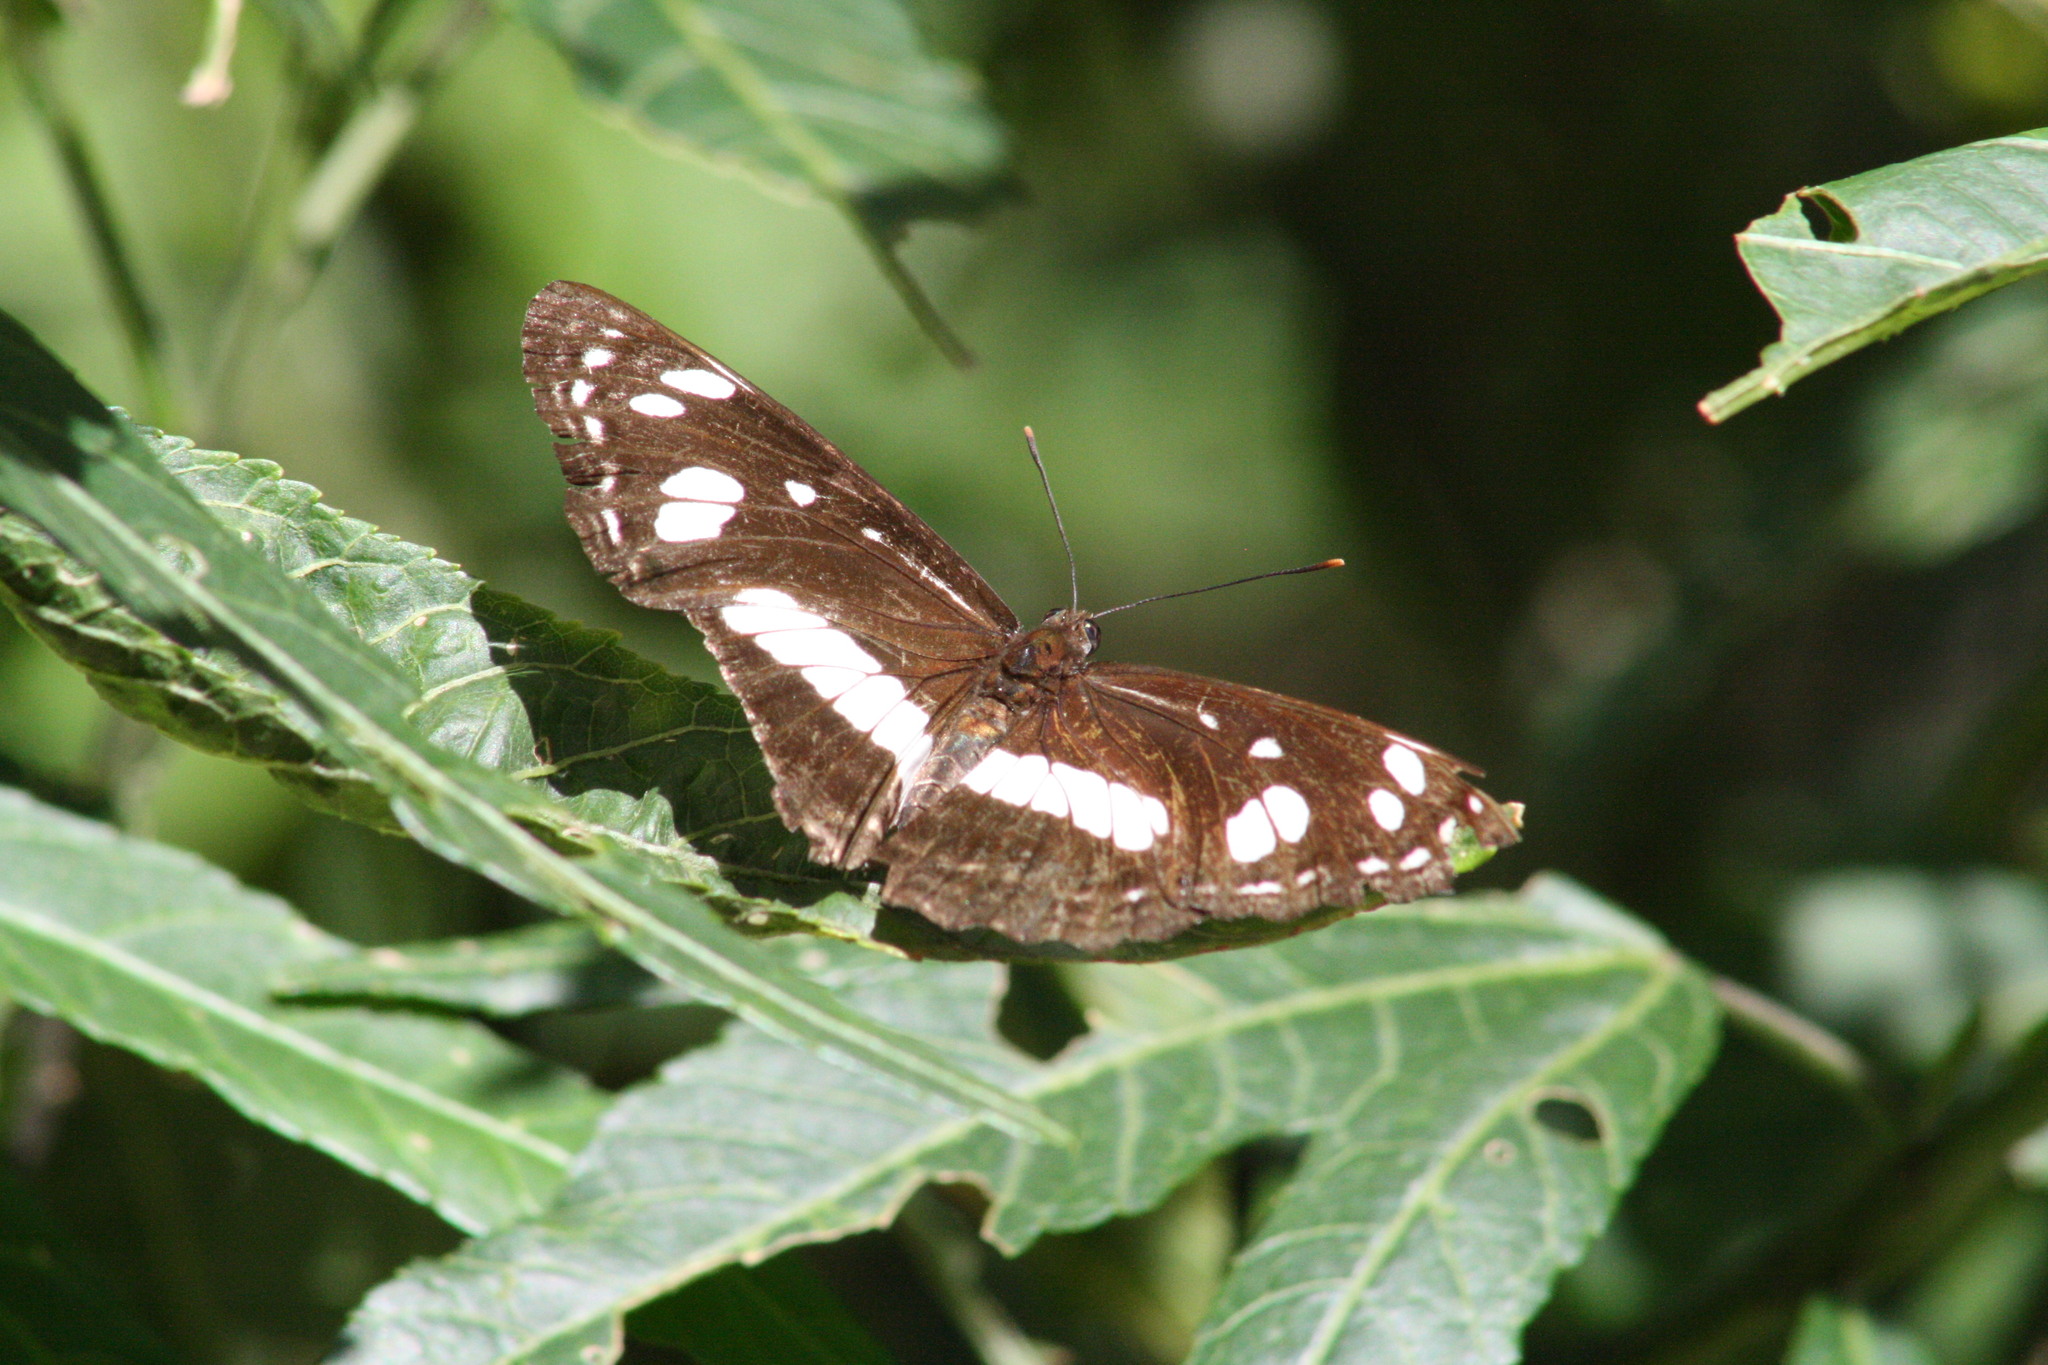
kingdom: Animalia
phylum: Arthropoda
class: Insecta
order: Lepidoptera
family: Nymphalidae
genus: Phaedyma
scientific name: Phaedyma shepherdi
